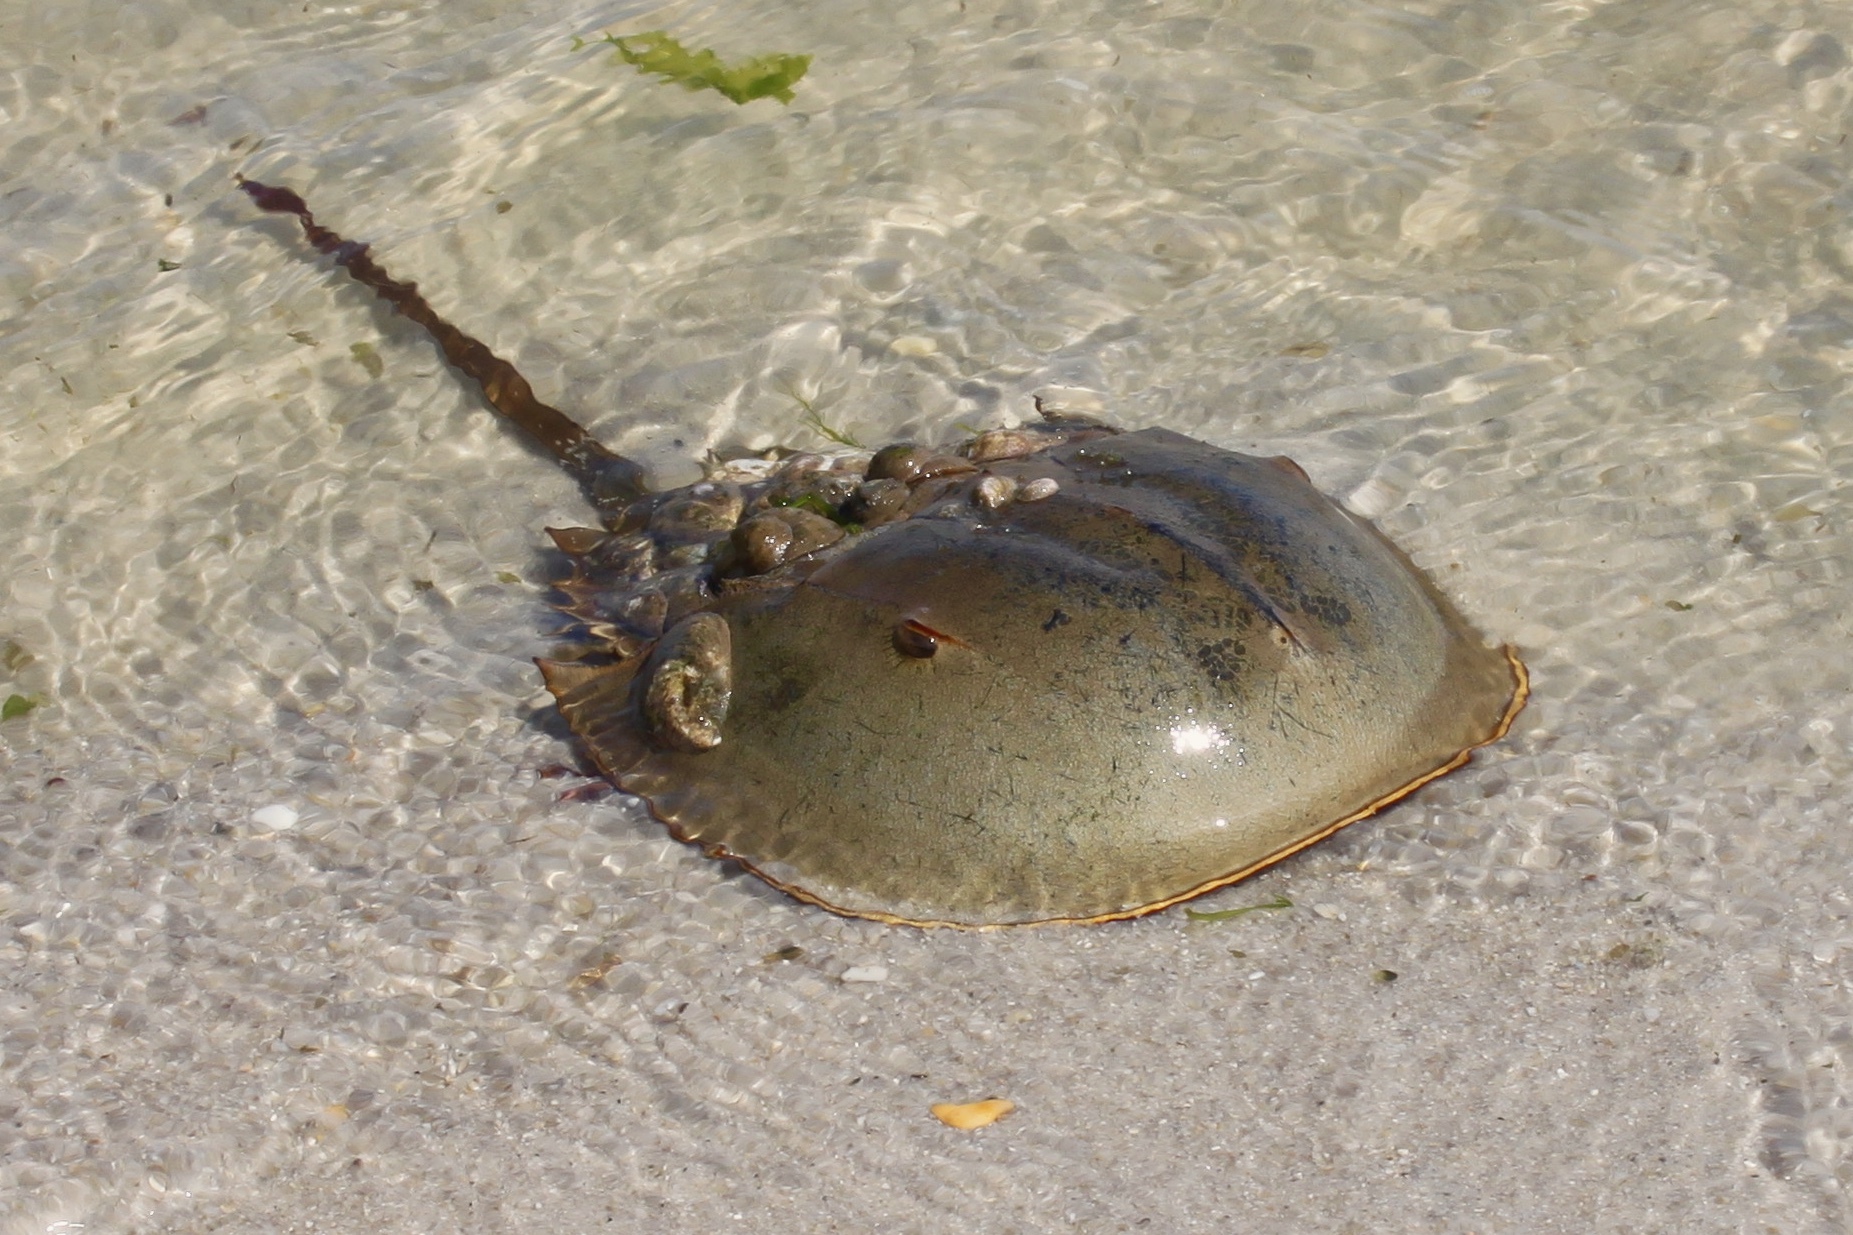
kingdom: Animalia
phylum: Arthropoda
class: Merostomata
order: Xiphosurida
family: Limulidae
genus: Limulus
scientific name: Limulus polyphemus
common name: Horseshoe crab
